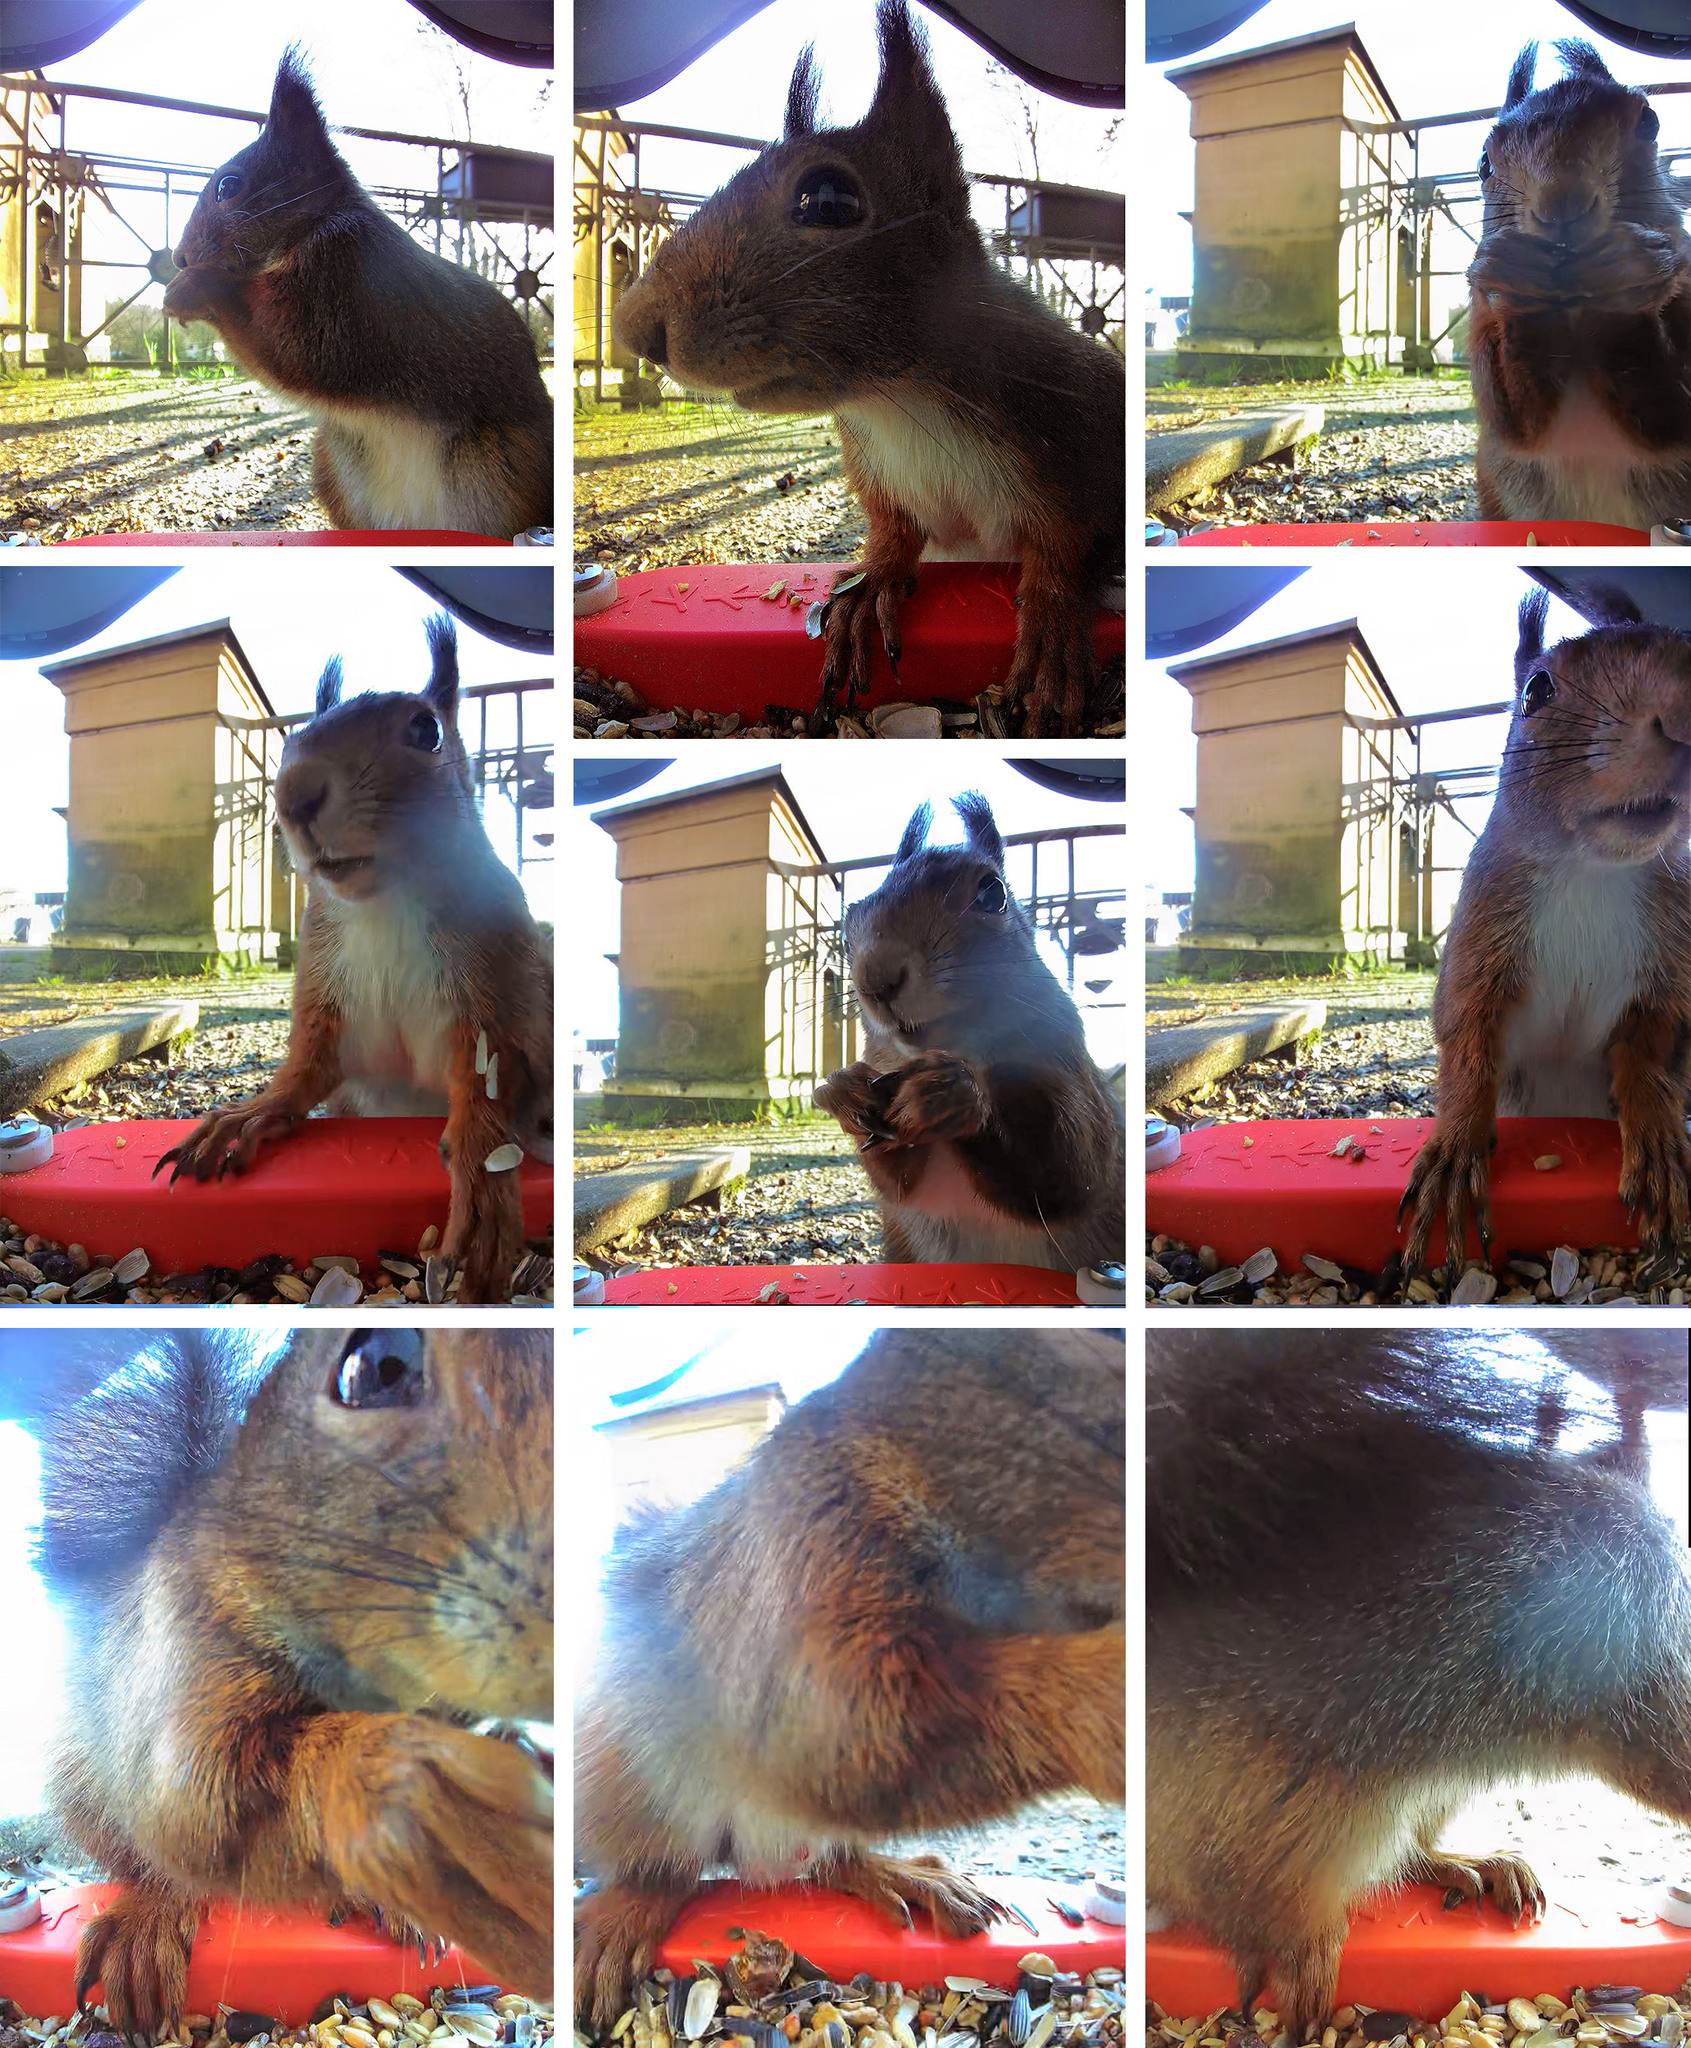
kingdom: Animalia
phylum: Chordata
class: Mammalia
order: Rodentia
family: Sciuridae
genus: Sciurus
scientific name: Sciurus vulgaris
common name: Eurasian red squirrel
